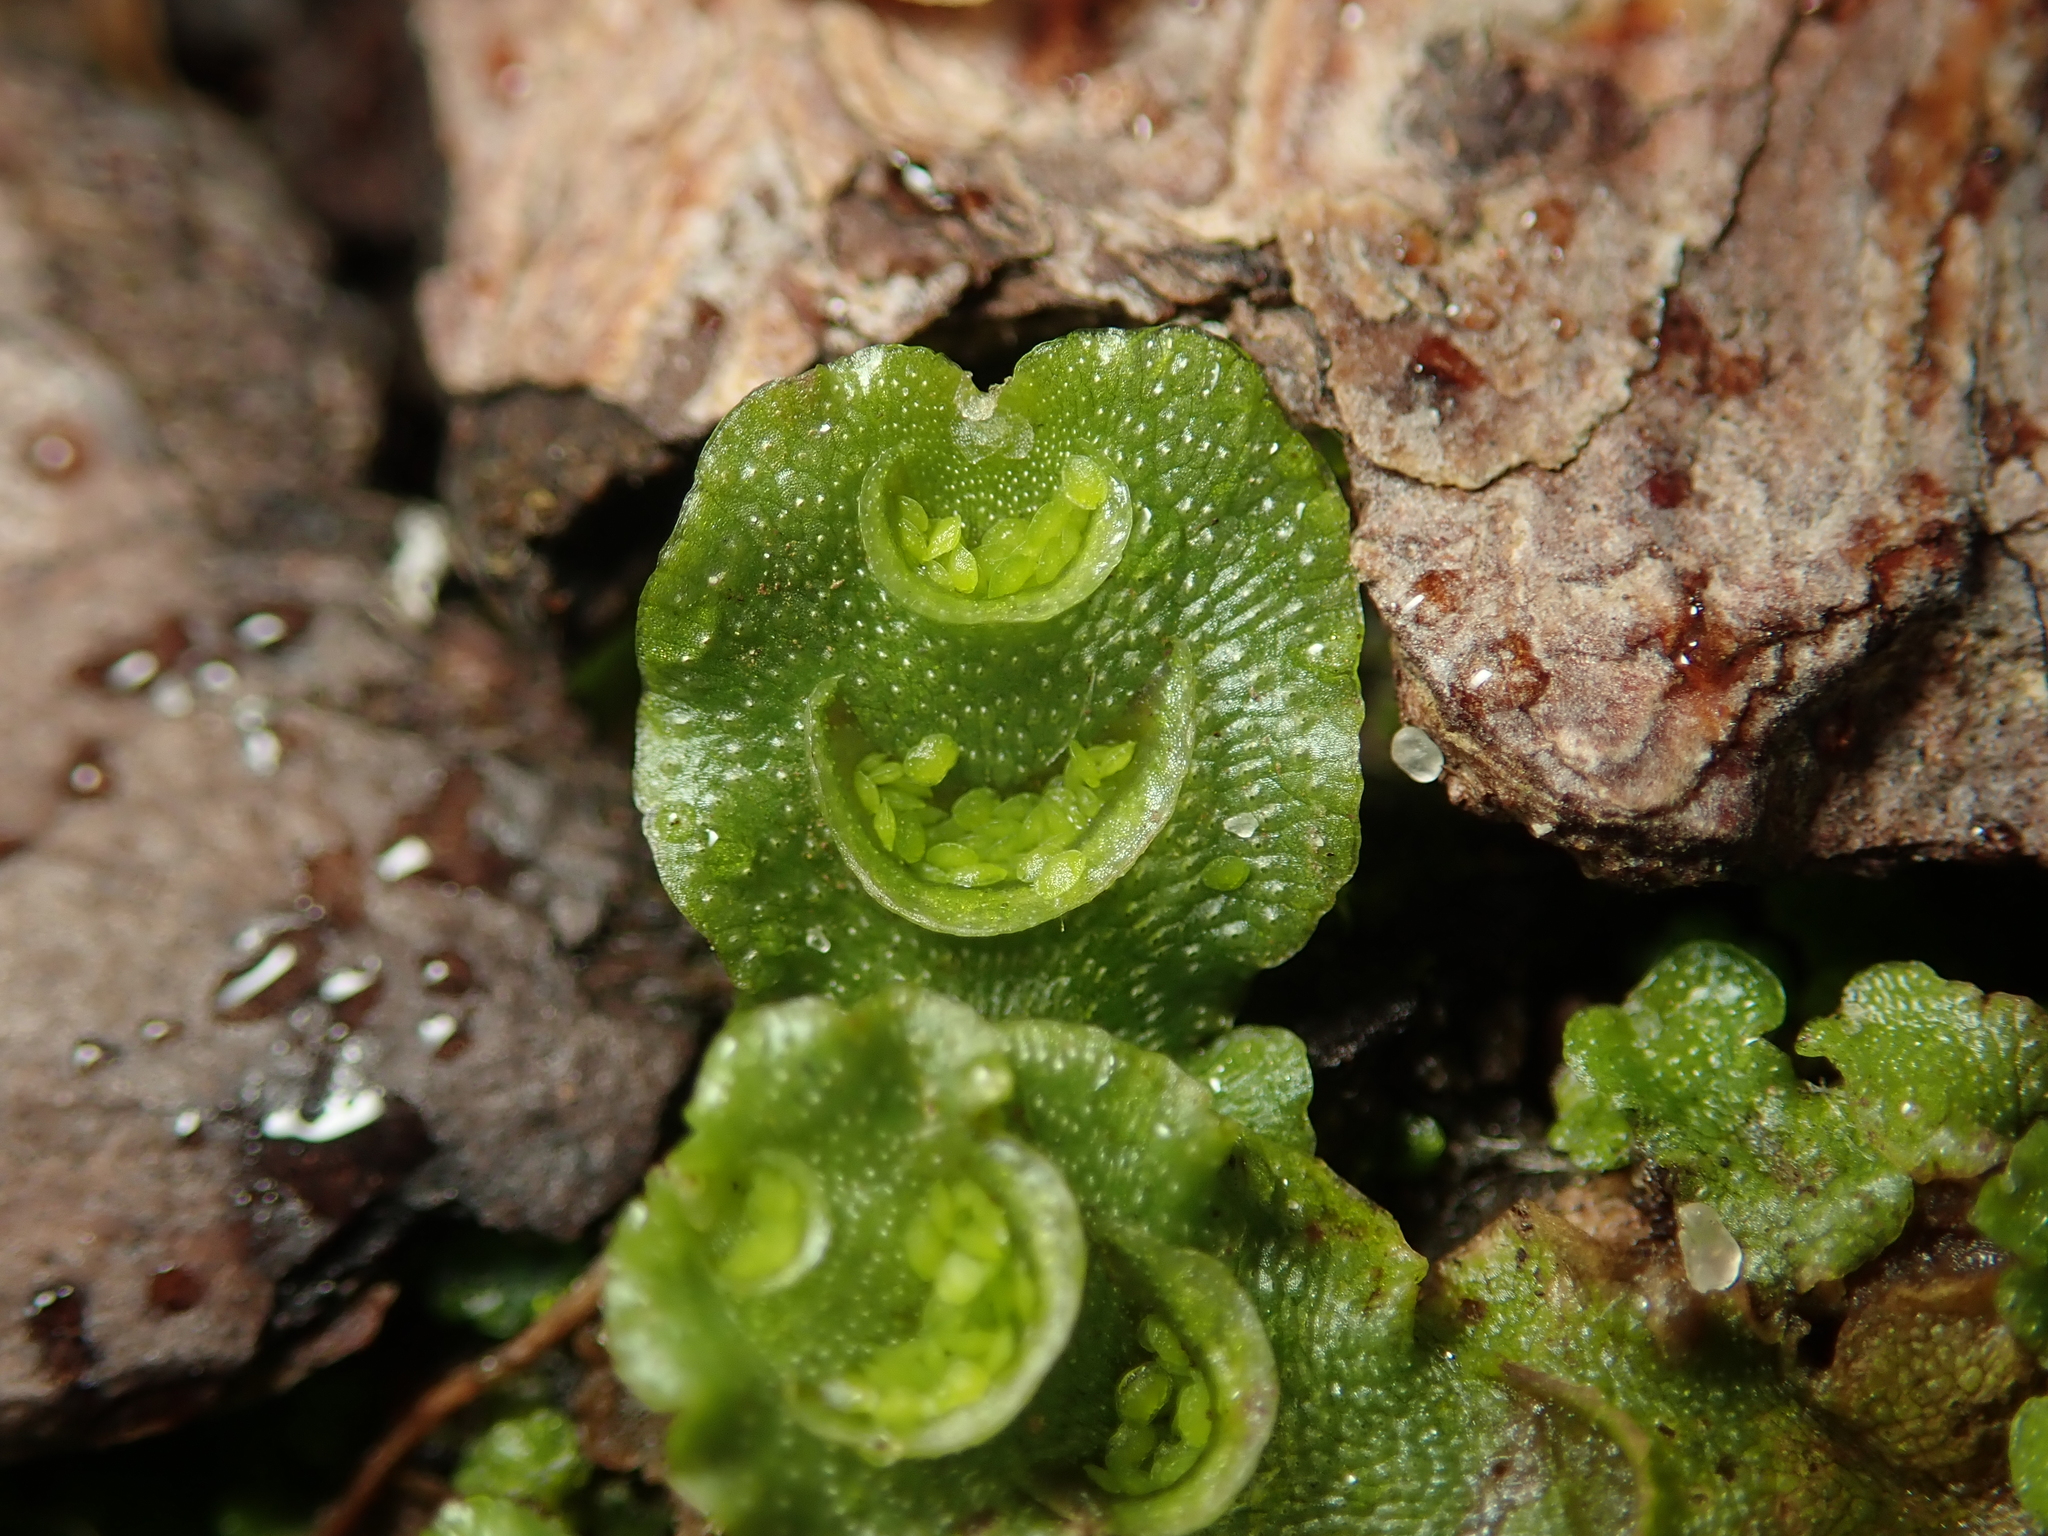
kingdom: Plantae
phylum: Marchantiophyta
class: Marchantiopsida
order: Lunulariales
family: Lunulariaceae
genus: Lunularia
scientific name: Lunularia cruciata
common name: Crescent-cup liverwort
